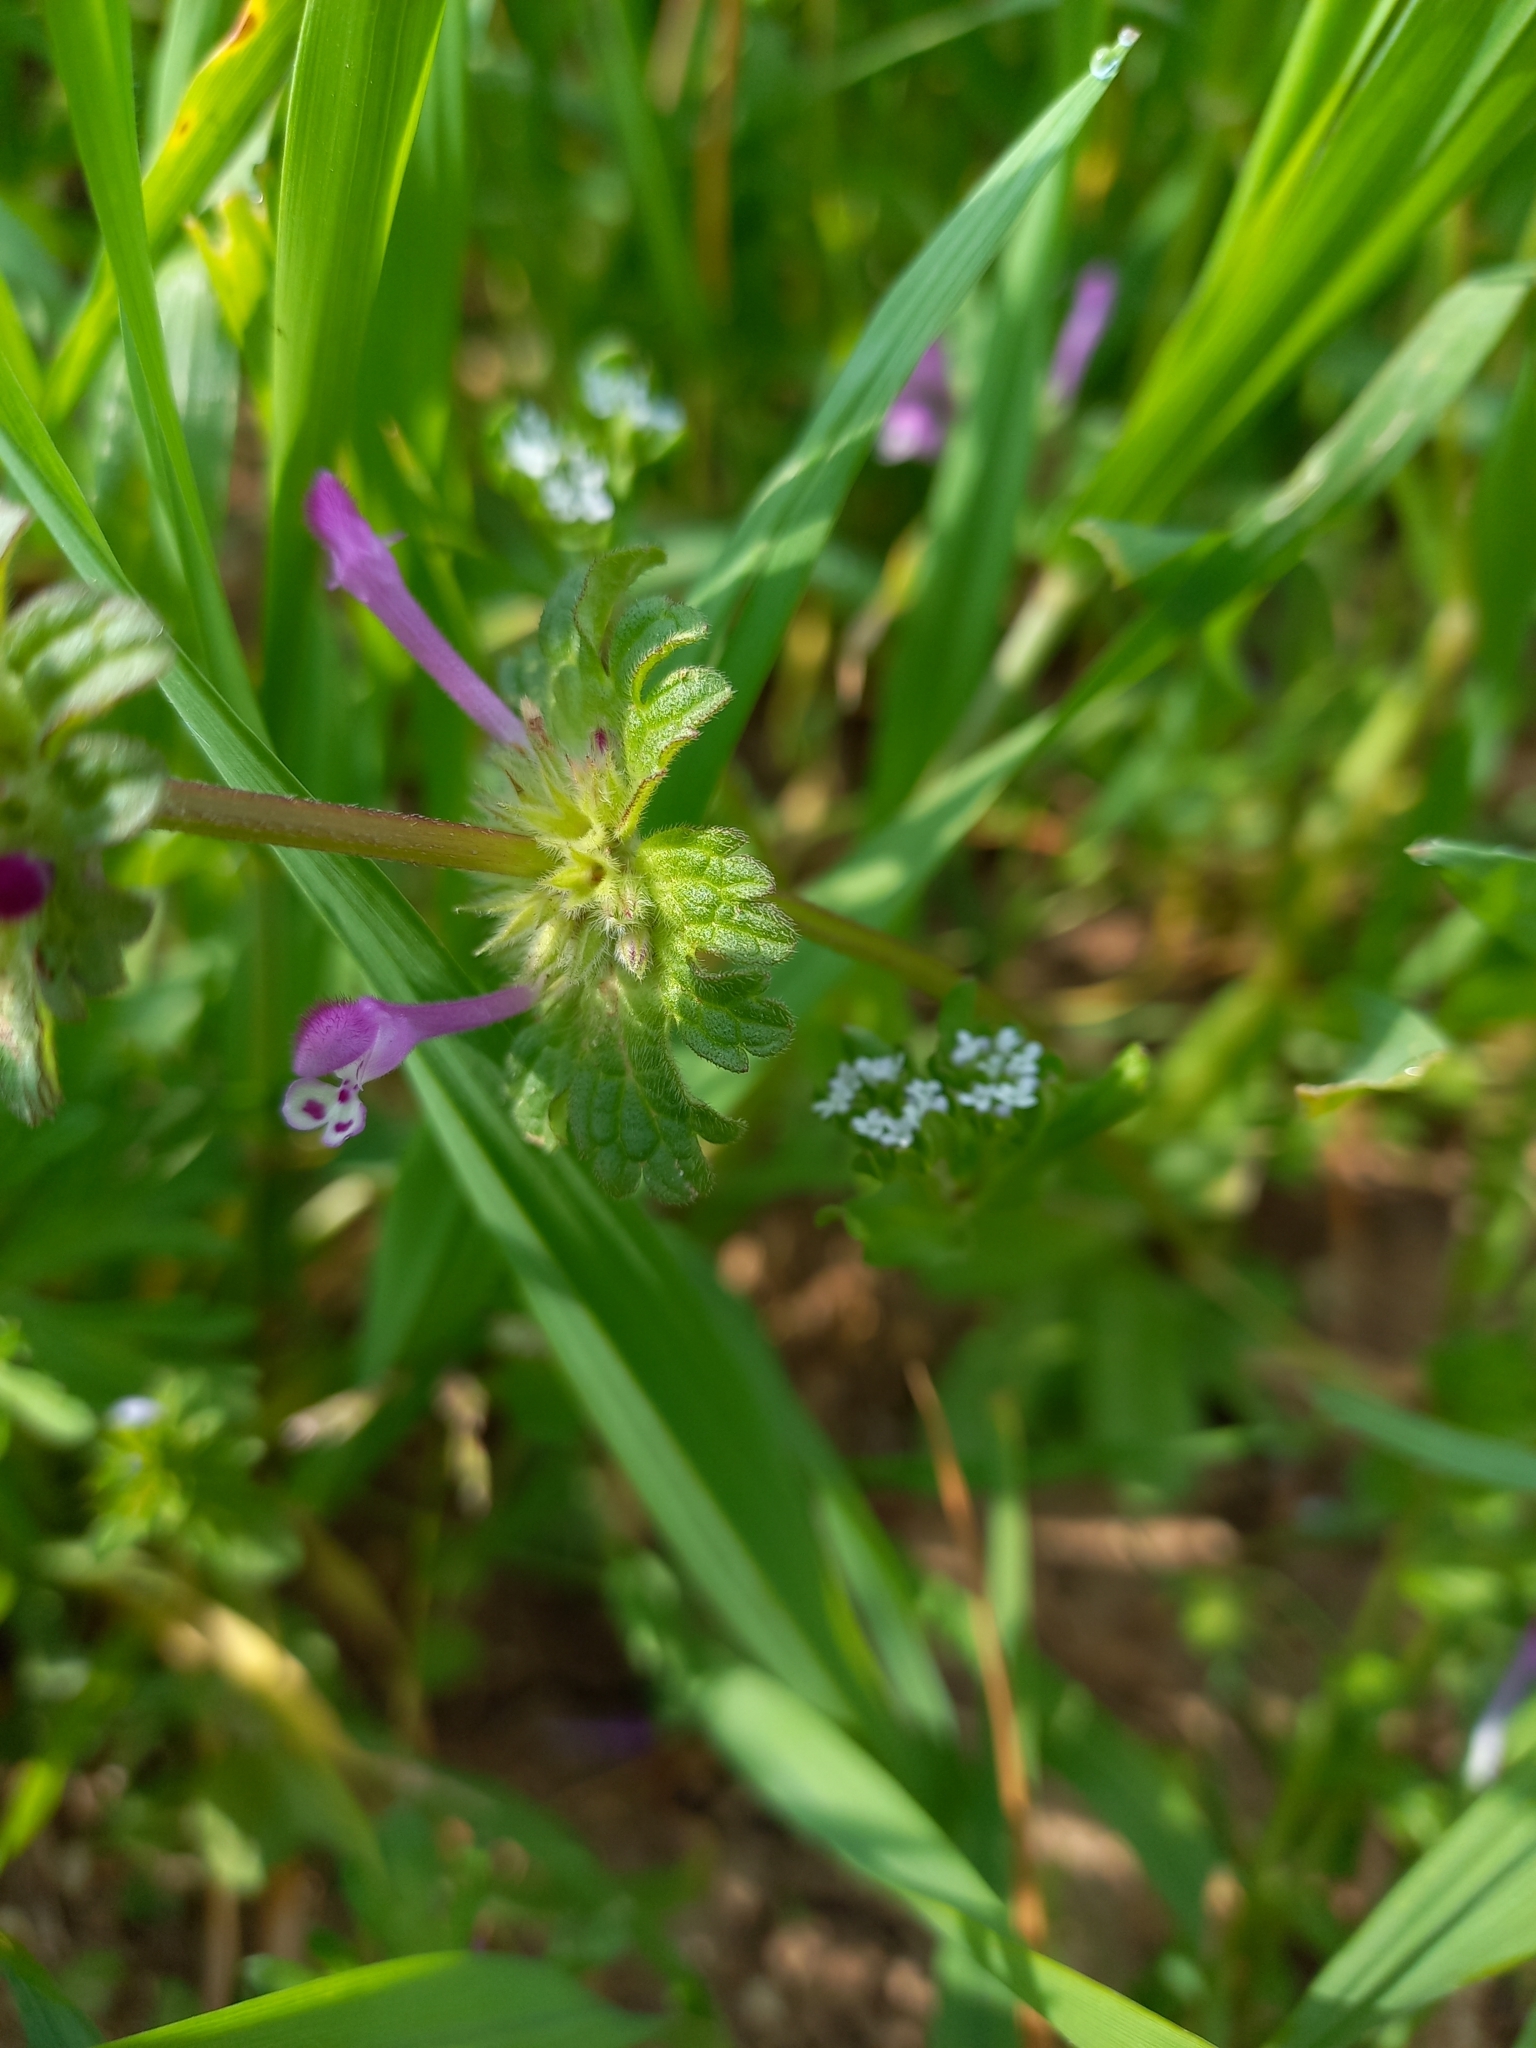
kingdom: Plantae
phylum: Tracheophyta
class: Magnoliopsida
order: Lamiales
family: Lamiaceae
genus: Lamium
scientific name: Lamium amplexicaule
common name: Henbit dead-nettle
